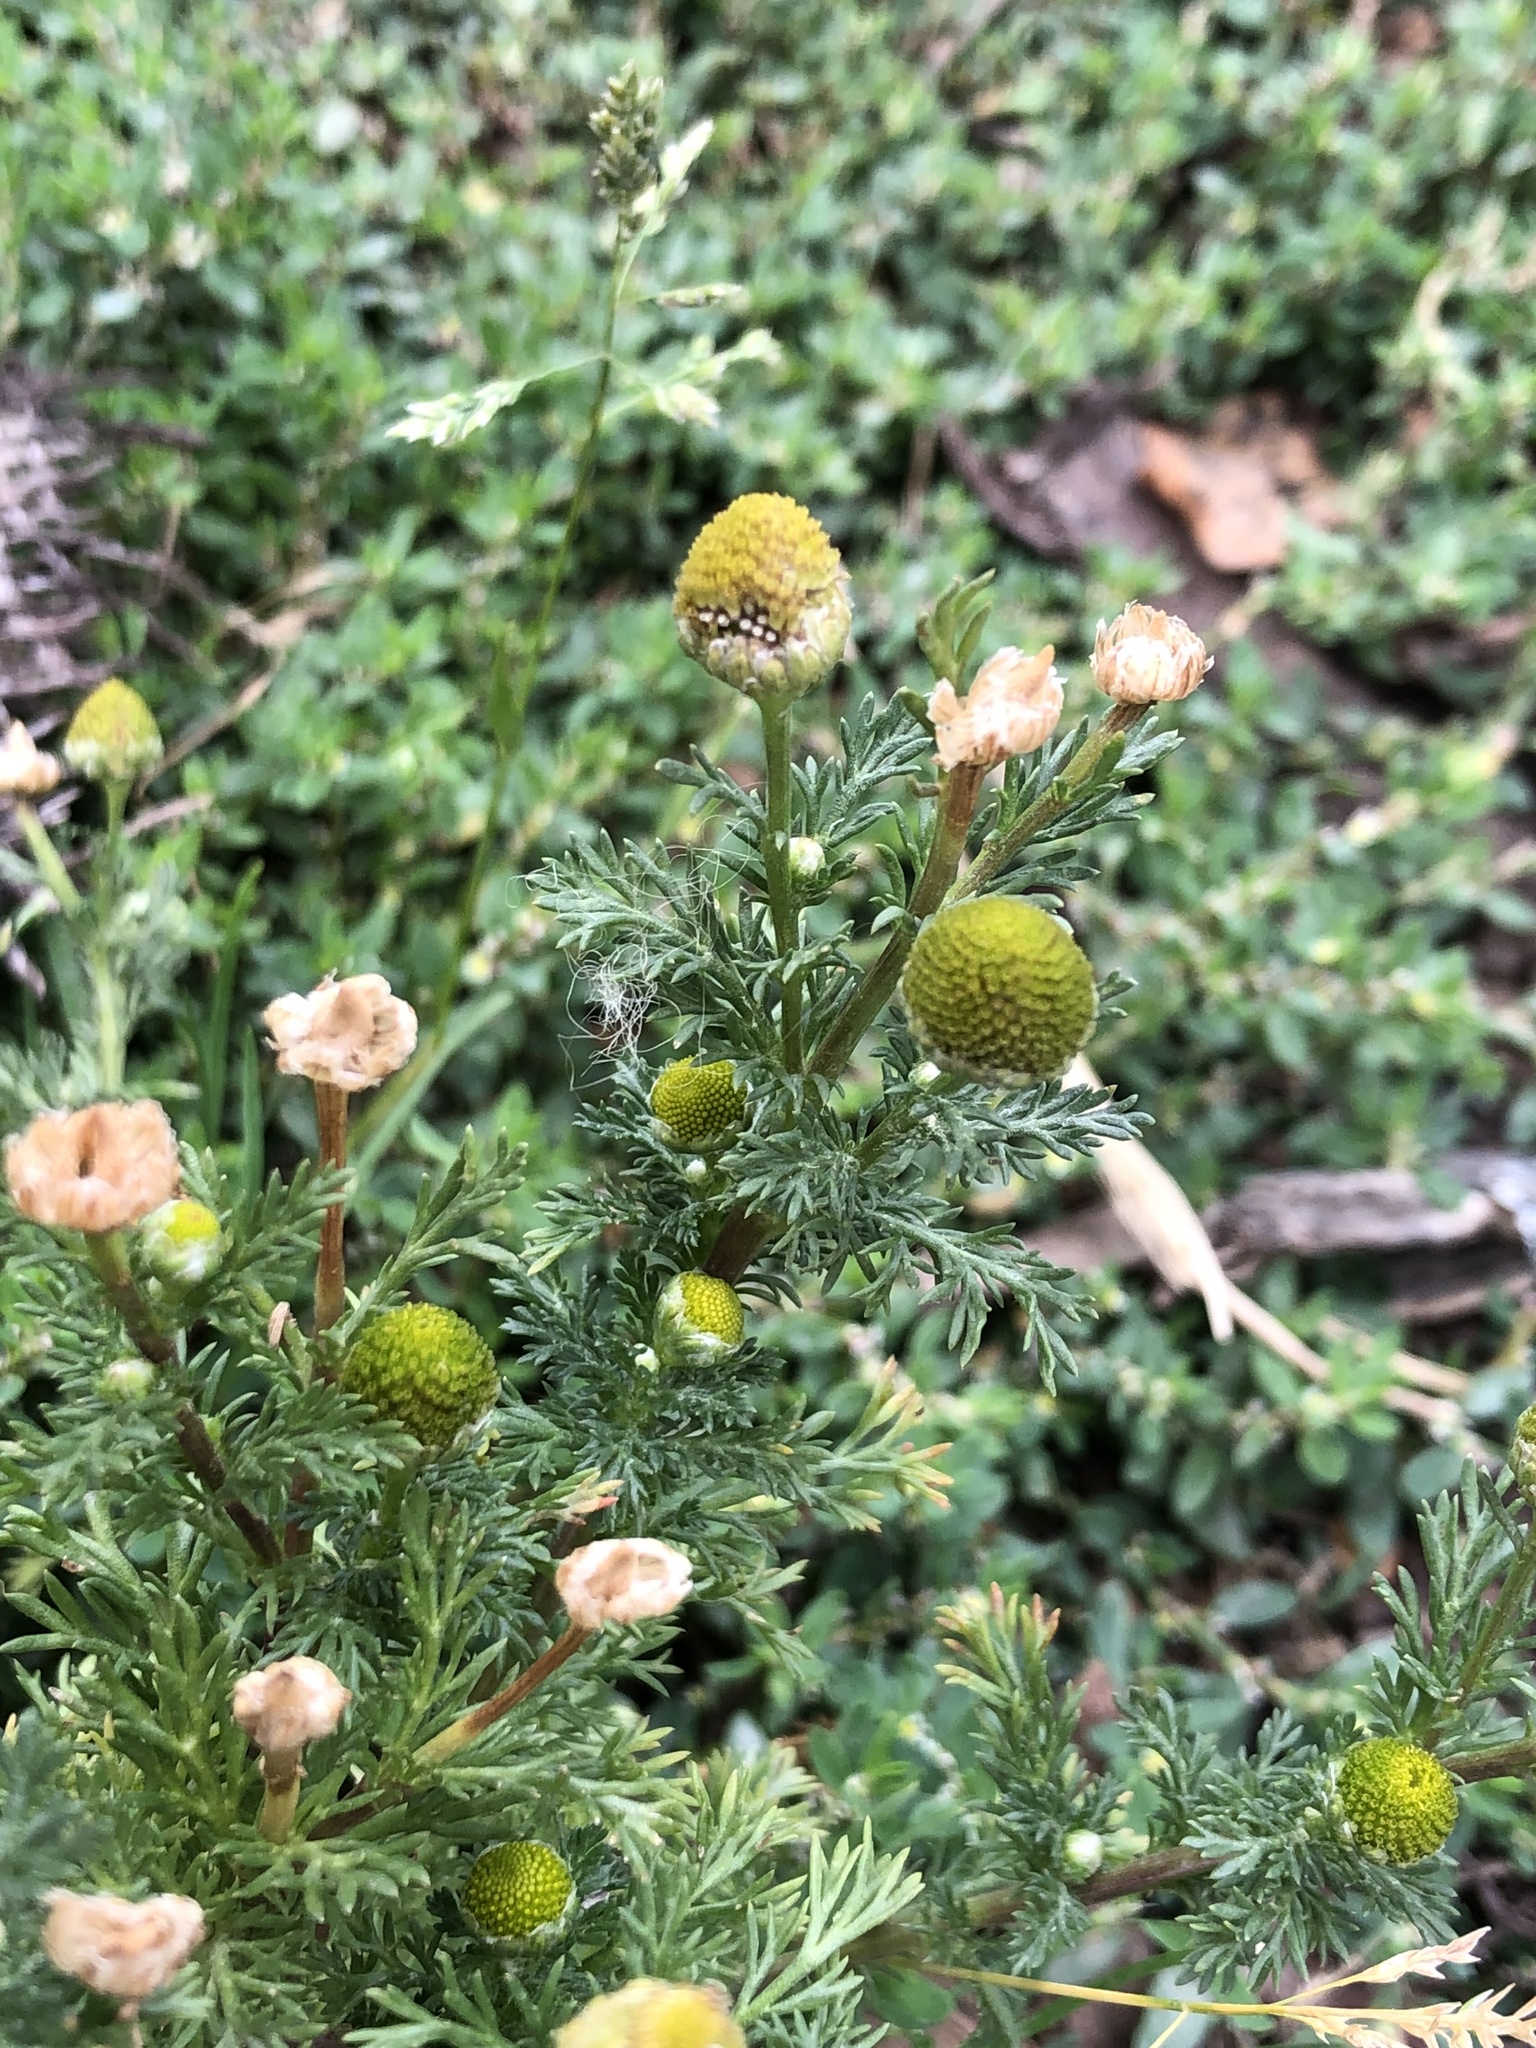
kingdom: Plantae
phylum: Tracheophyta
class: Magnoliopsida
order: Asterales
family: Asteraceae
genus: Matricaria
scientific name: Matricaria discoidea
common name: Disc mayweed
